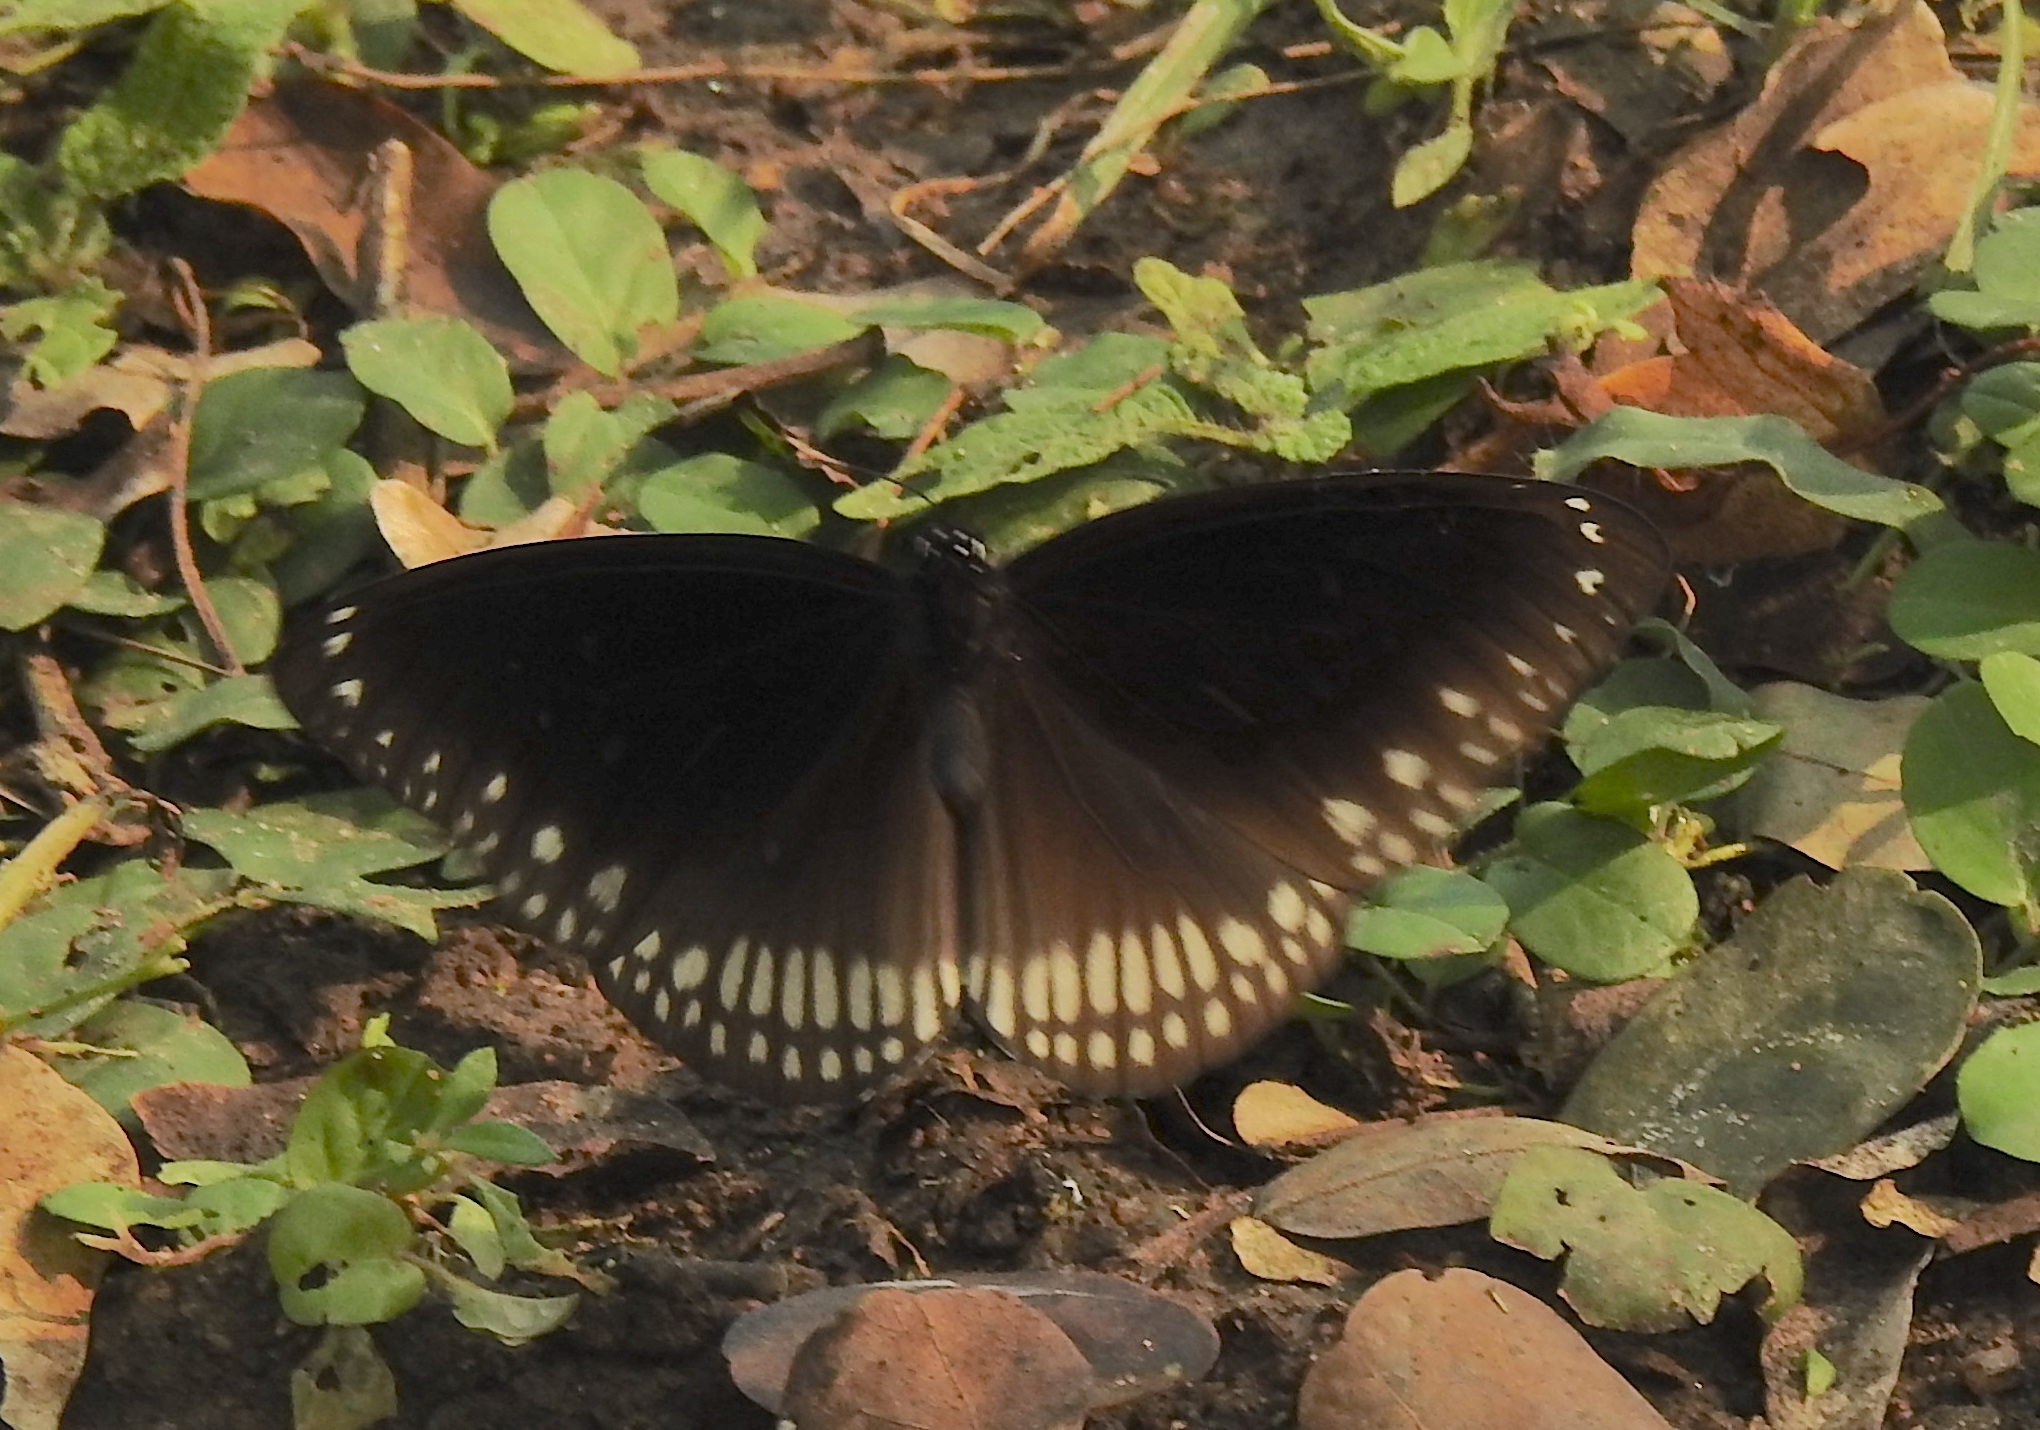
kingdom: Animalia
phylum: Arthropoda
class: Insecta
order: Lepidoptera
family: Nymphalidae
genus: Euploea
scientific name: Euploea core
